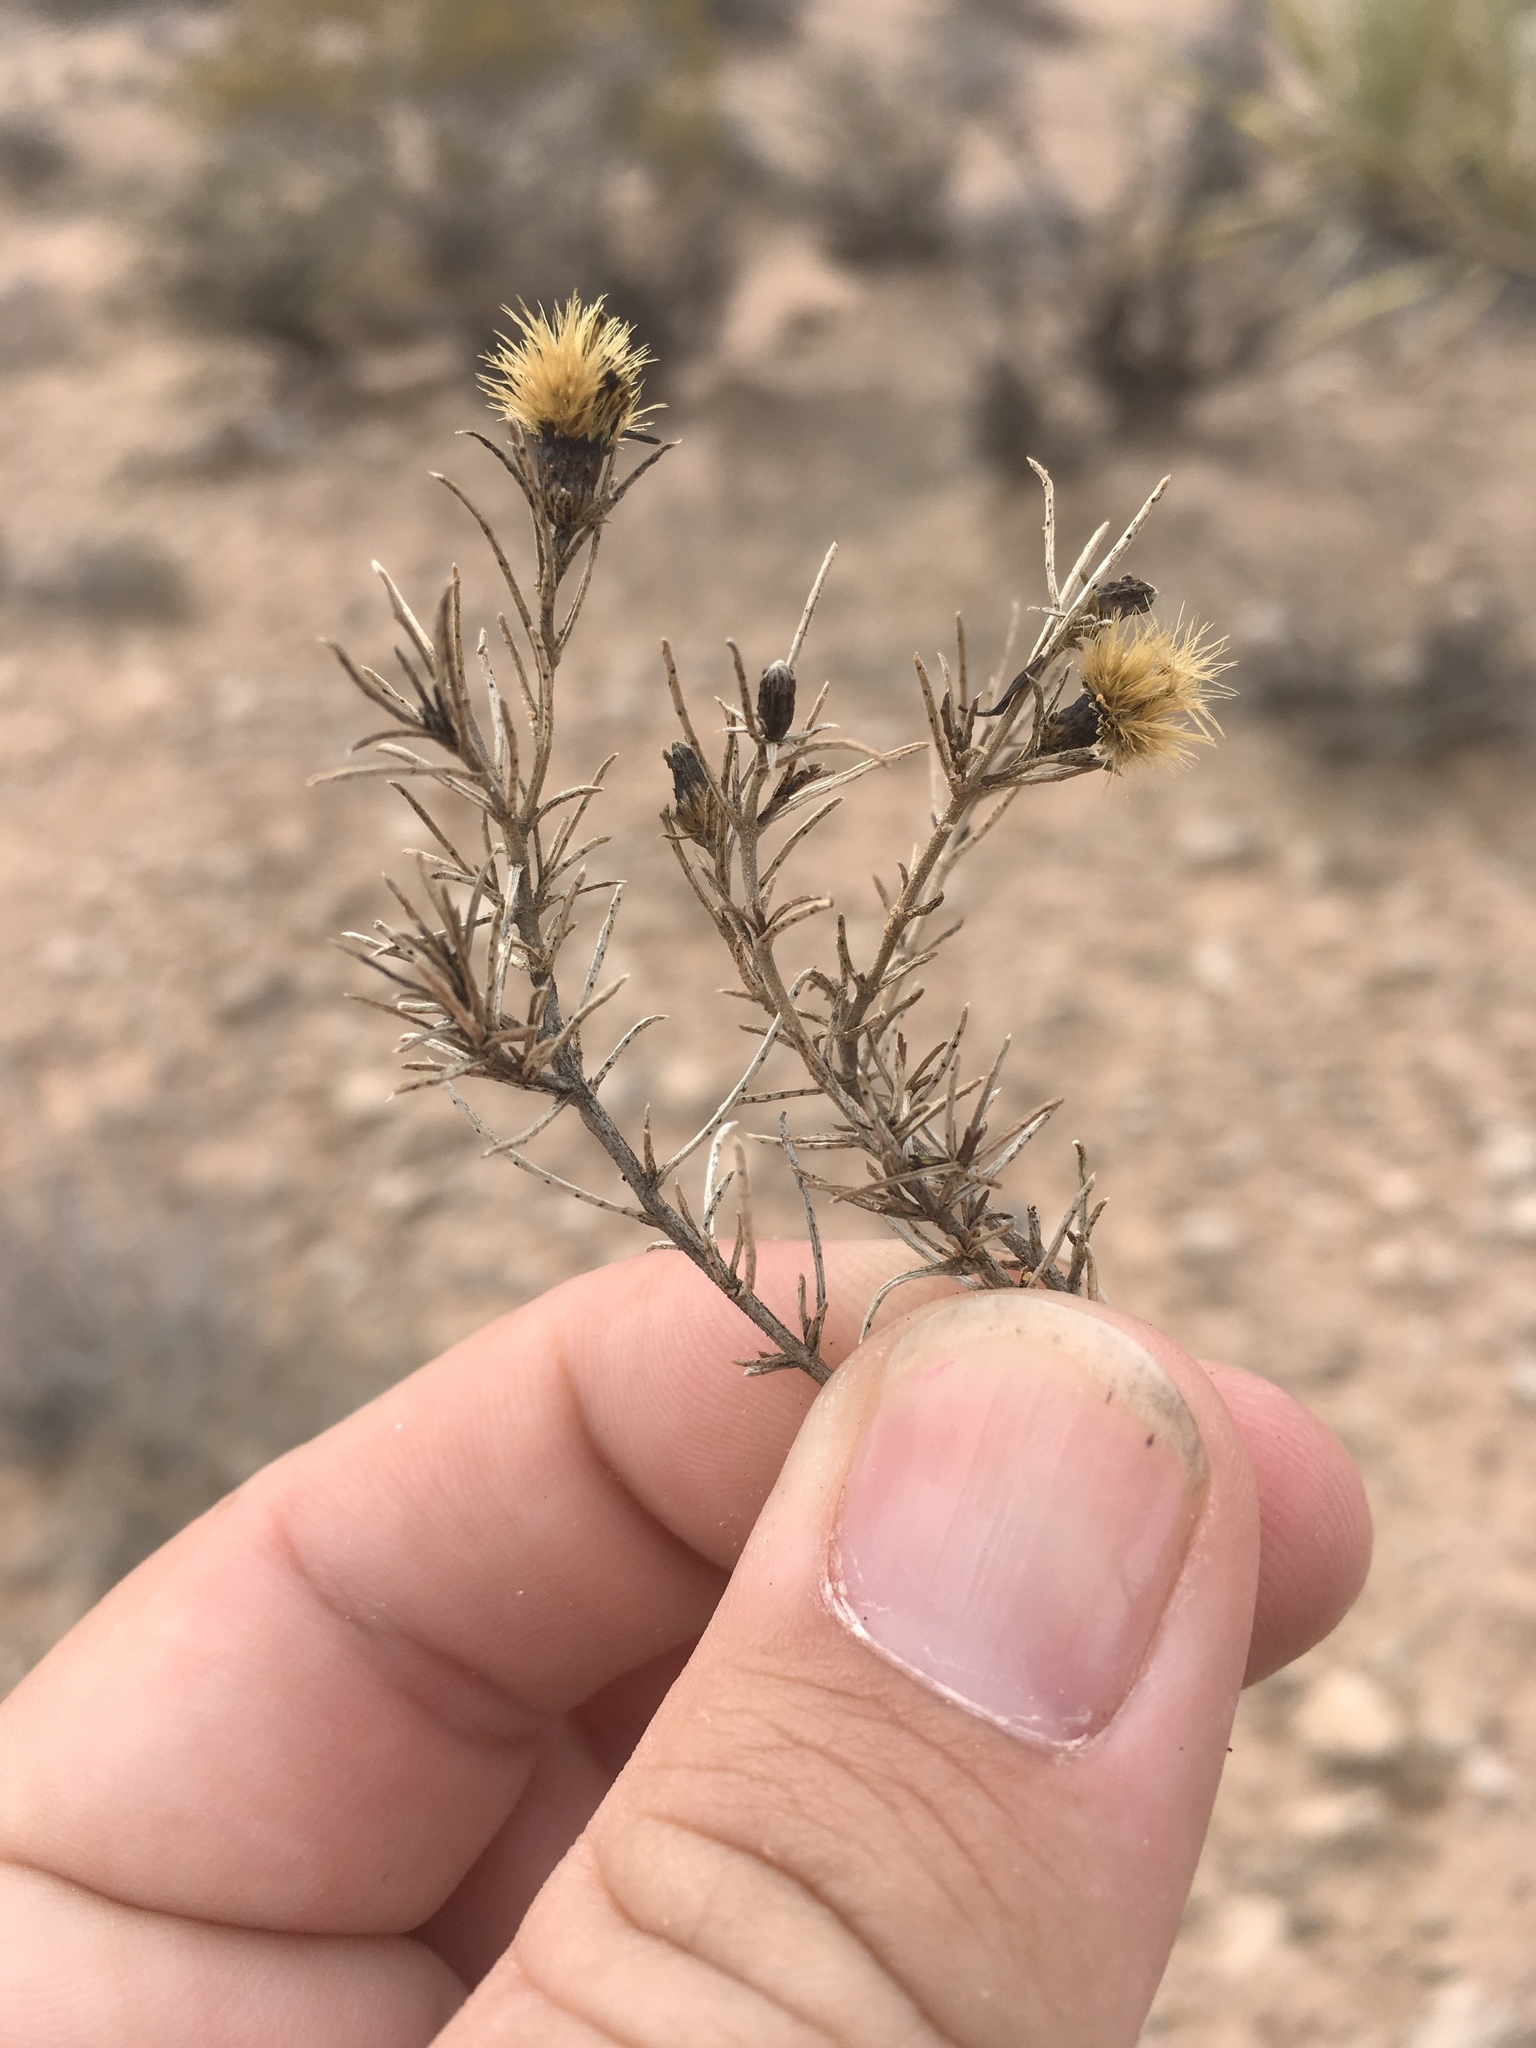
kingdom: Plantae
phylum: Tracheophyta
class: Magnoliopsida
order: Asterales
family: Asteraceae
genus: Thymophylla
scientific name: Thymophylla acerosa
